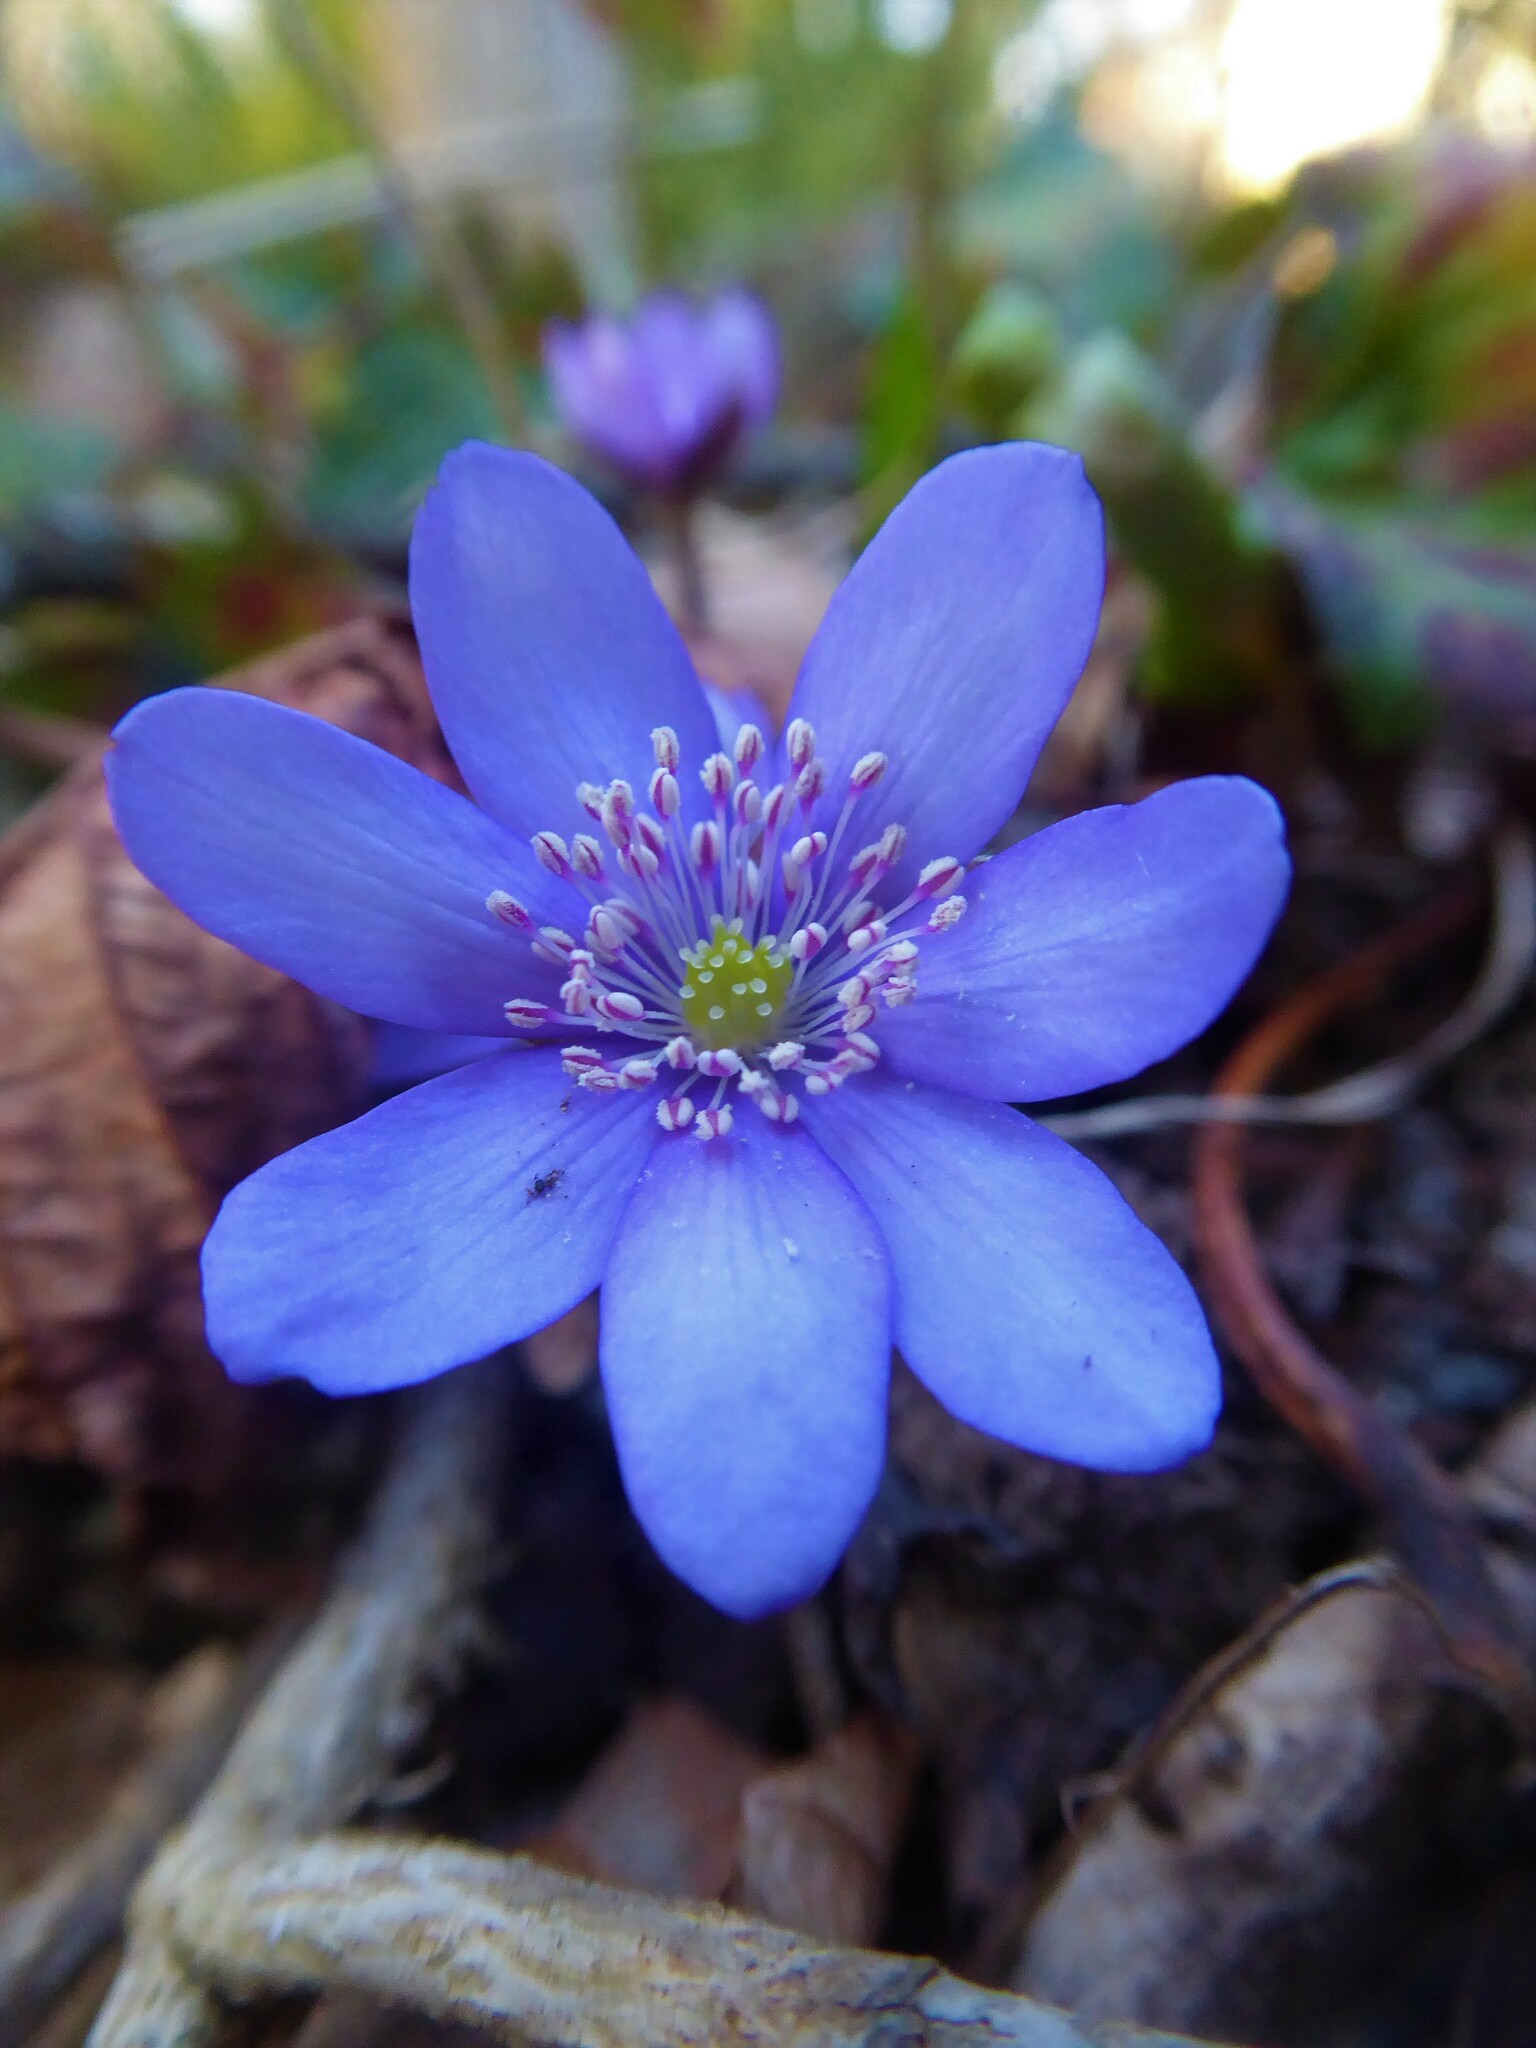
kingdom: Plantae
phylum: Tracheophyta
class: Magnoliopsida
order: Ranunculales
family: Ranunculaceae
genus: Hepatica
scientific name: Hepatica nobilis
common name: Liverleaf
